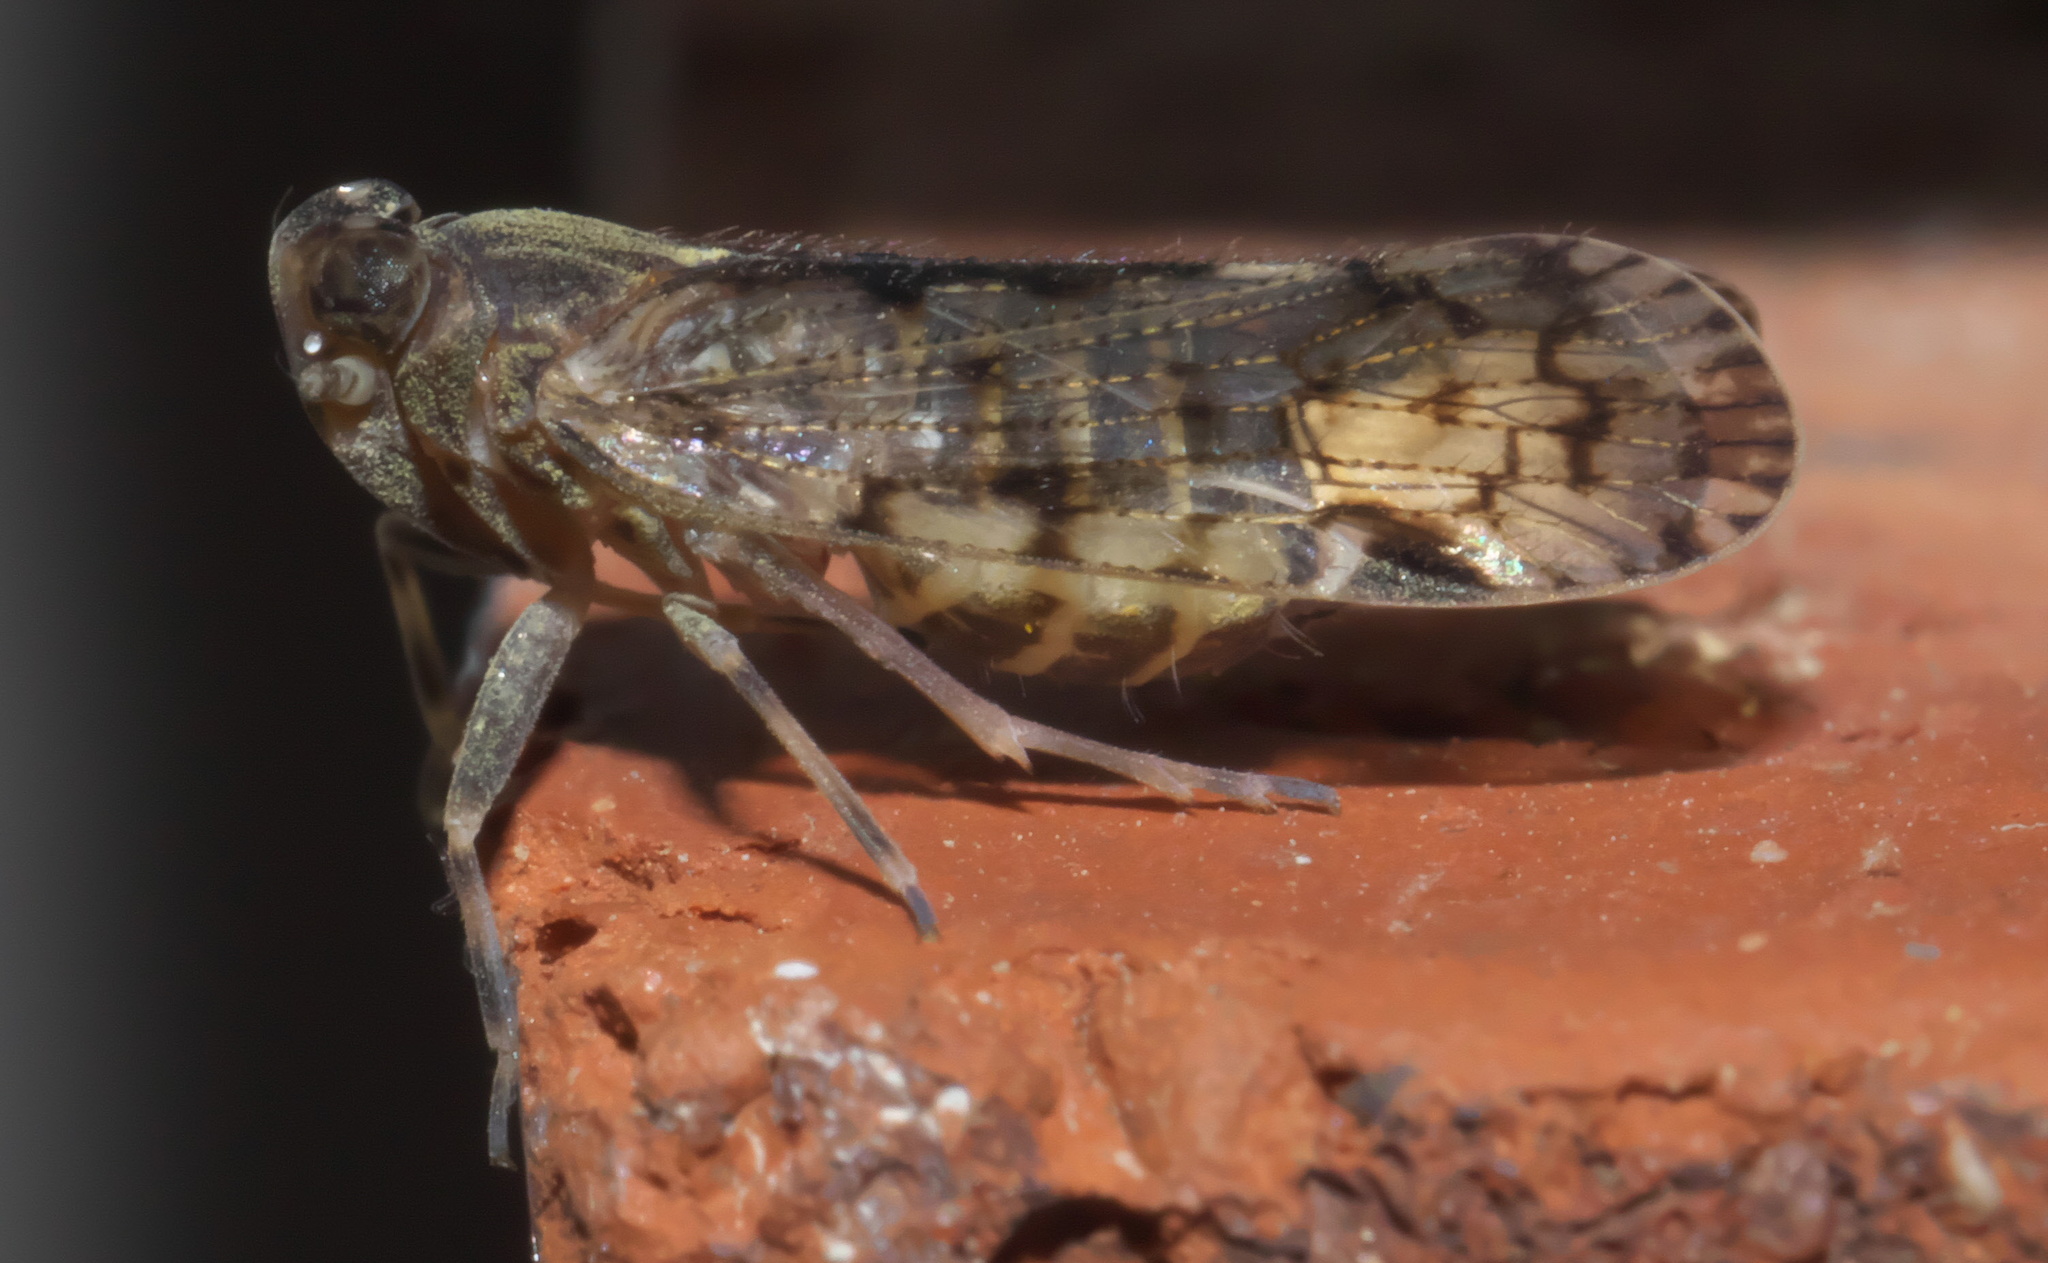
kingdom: Animalia
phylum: Arthropoda
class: Insecta
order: Hemiptera
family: Cixiidae
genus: Melanoliarus
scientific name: Melanoliarus placitus
